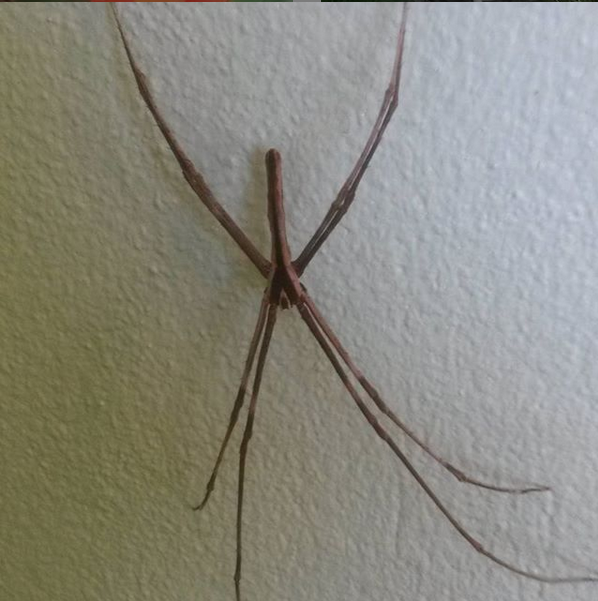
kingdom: Animalia
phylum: Arthropoda
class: Arachnida
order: Araneae
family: Deinopidae
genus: Deinopis
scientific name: Deinopis subrufa
